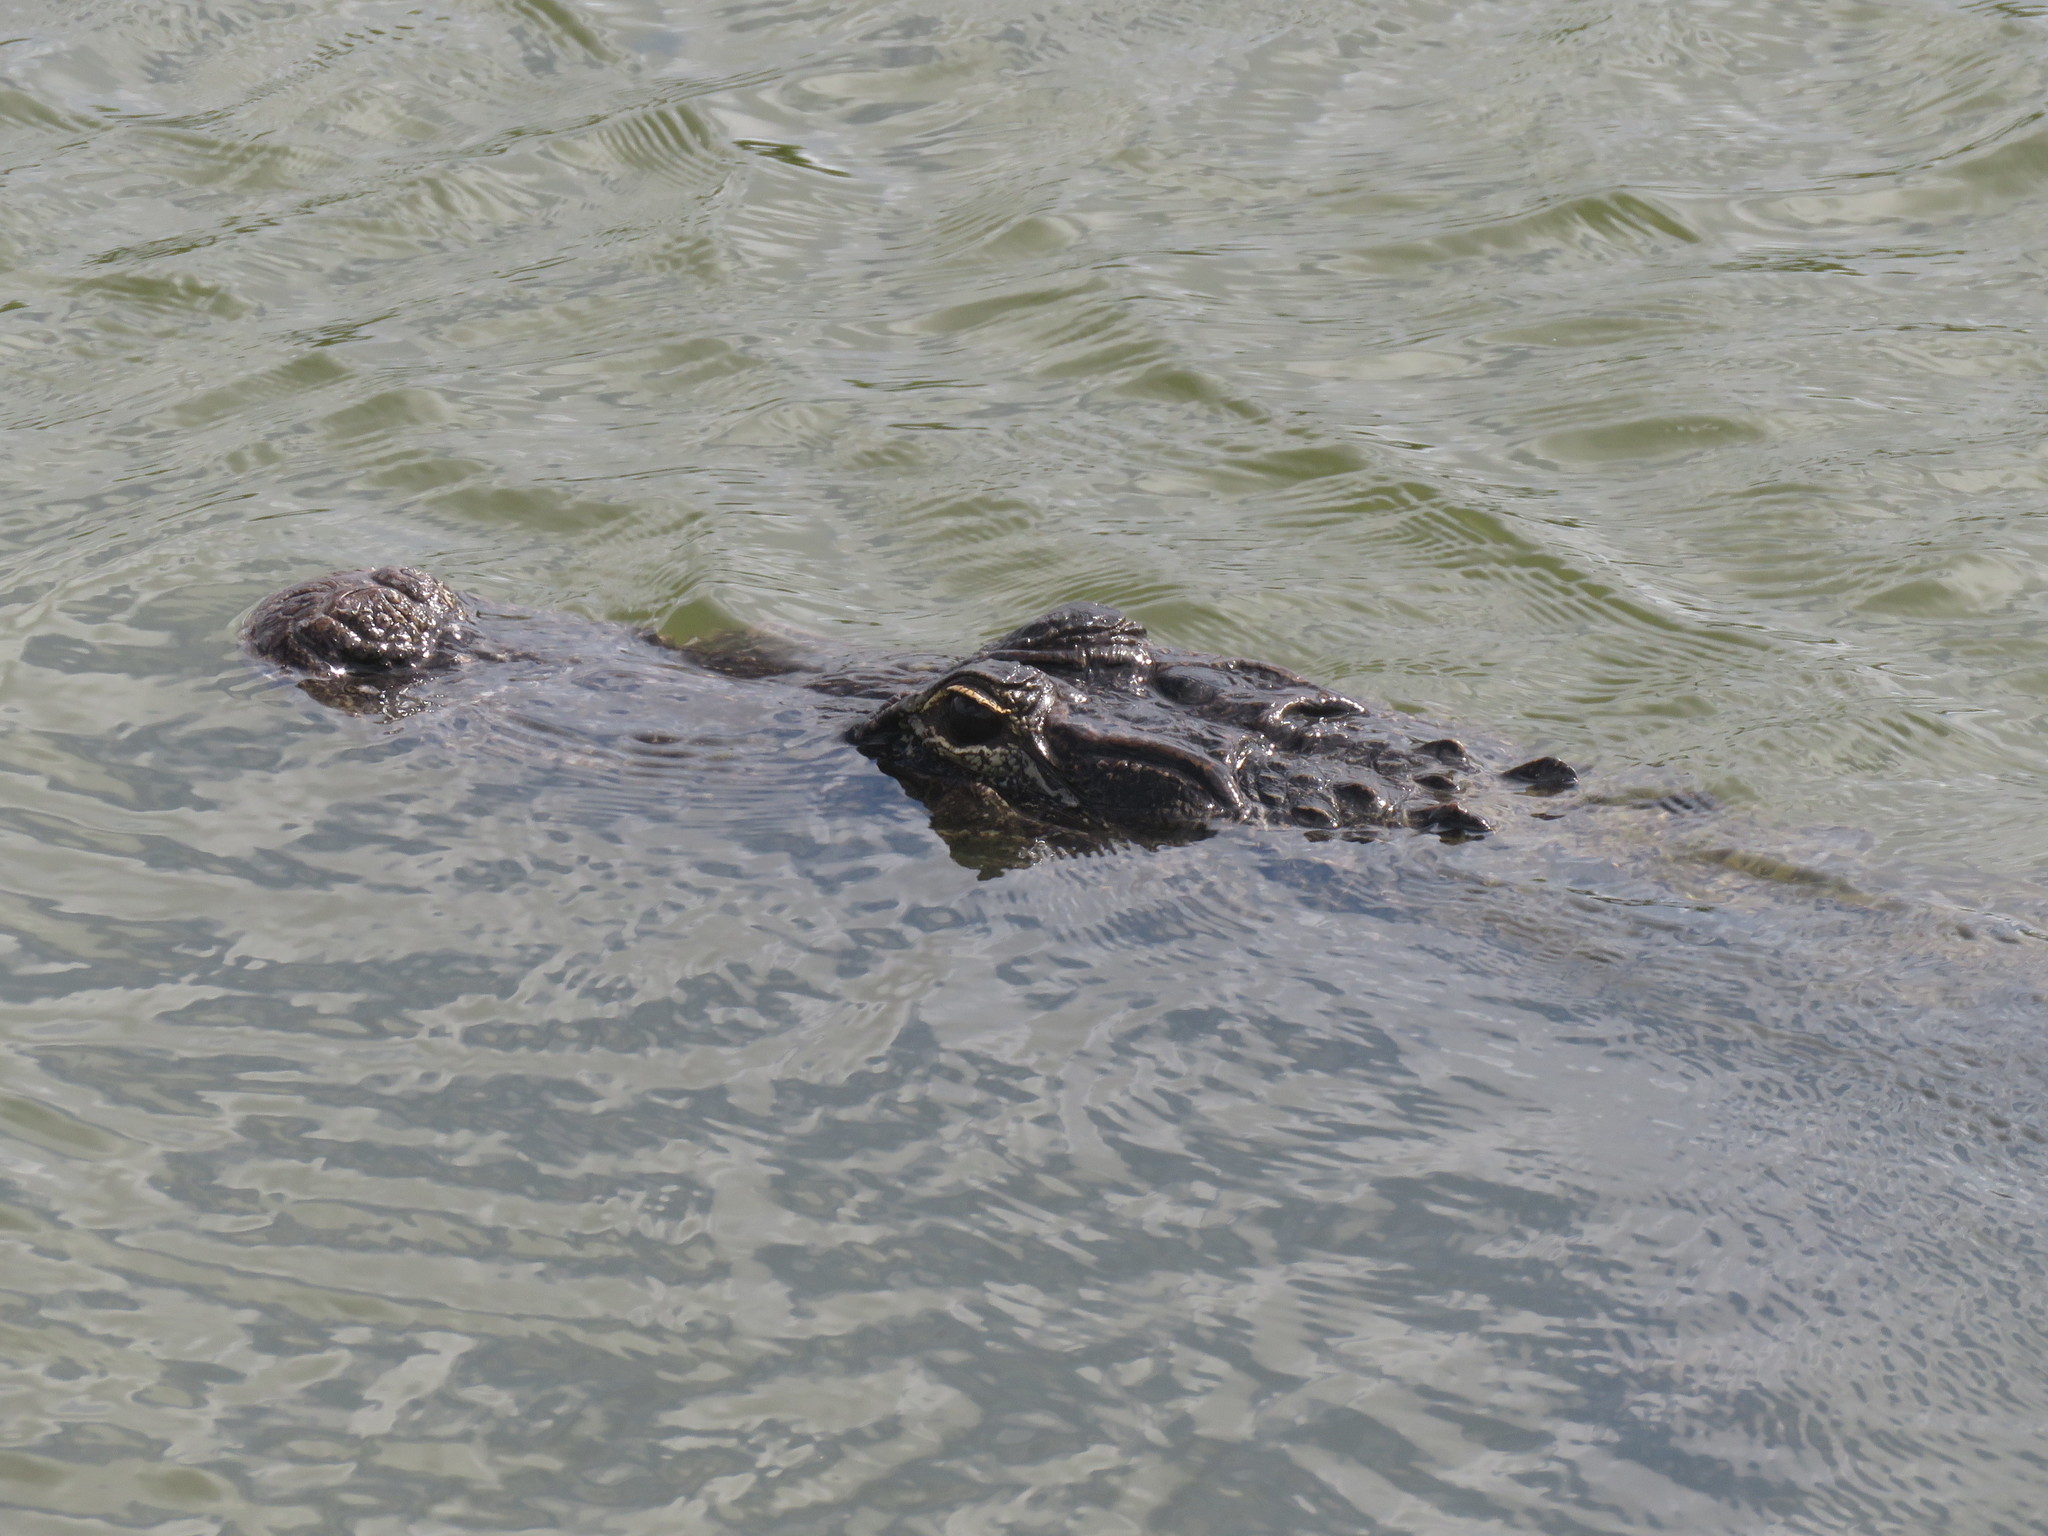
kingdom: Animalia
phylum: Chordata
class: Crocodylia
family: Alligatoridae
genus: Alligator
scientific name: Alligator mississippiensis
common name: American alligator
